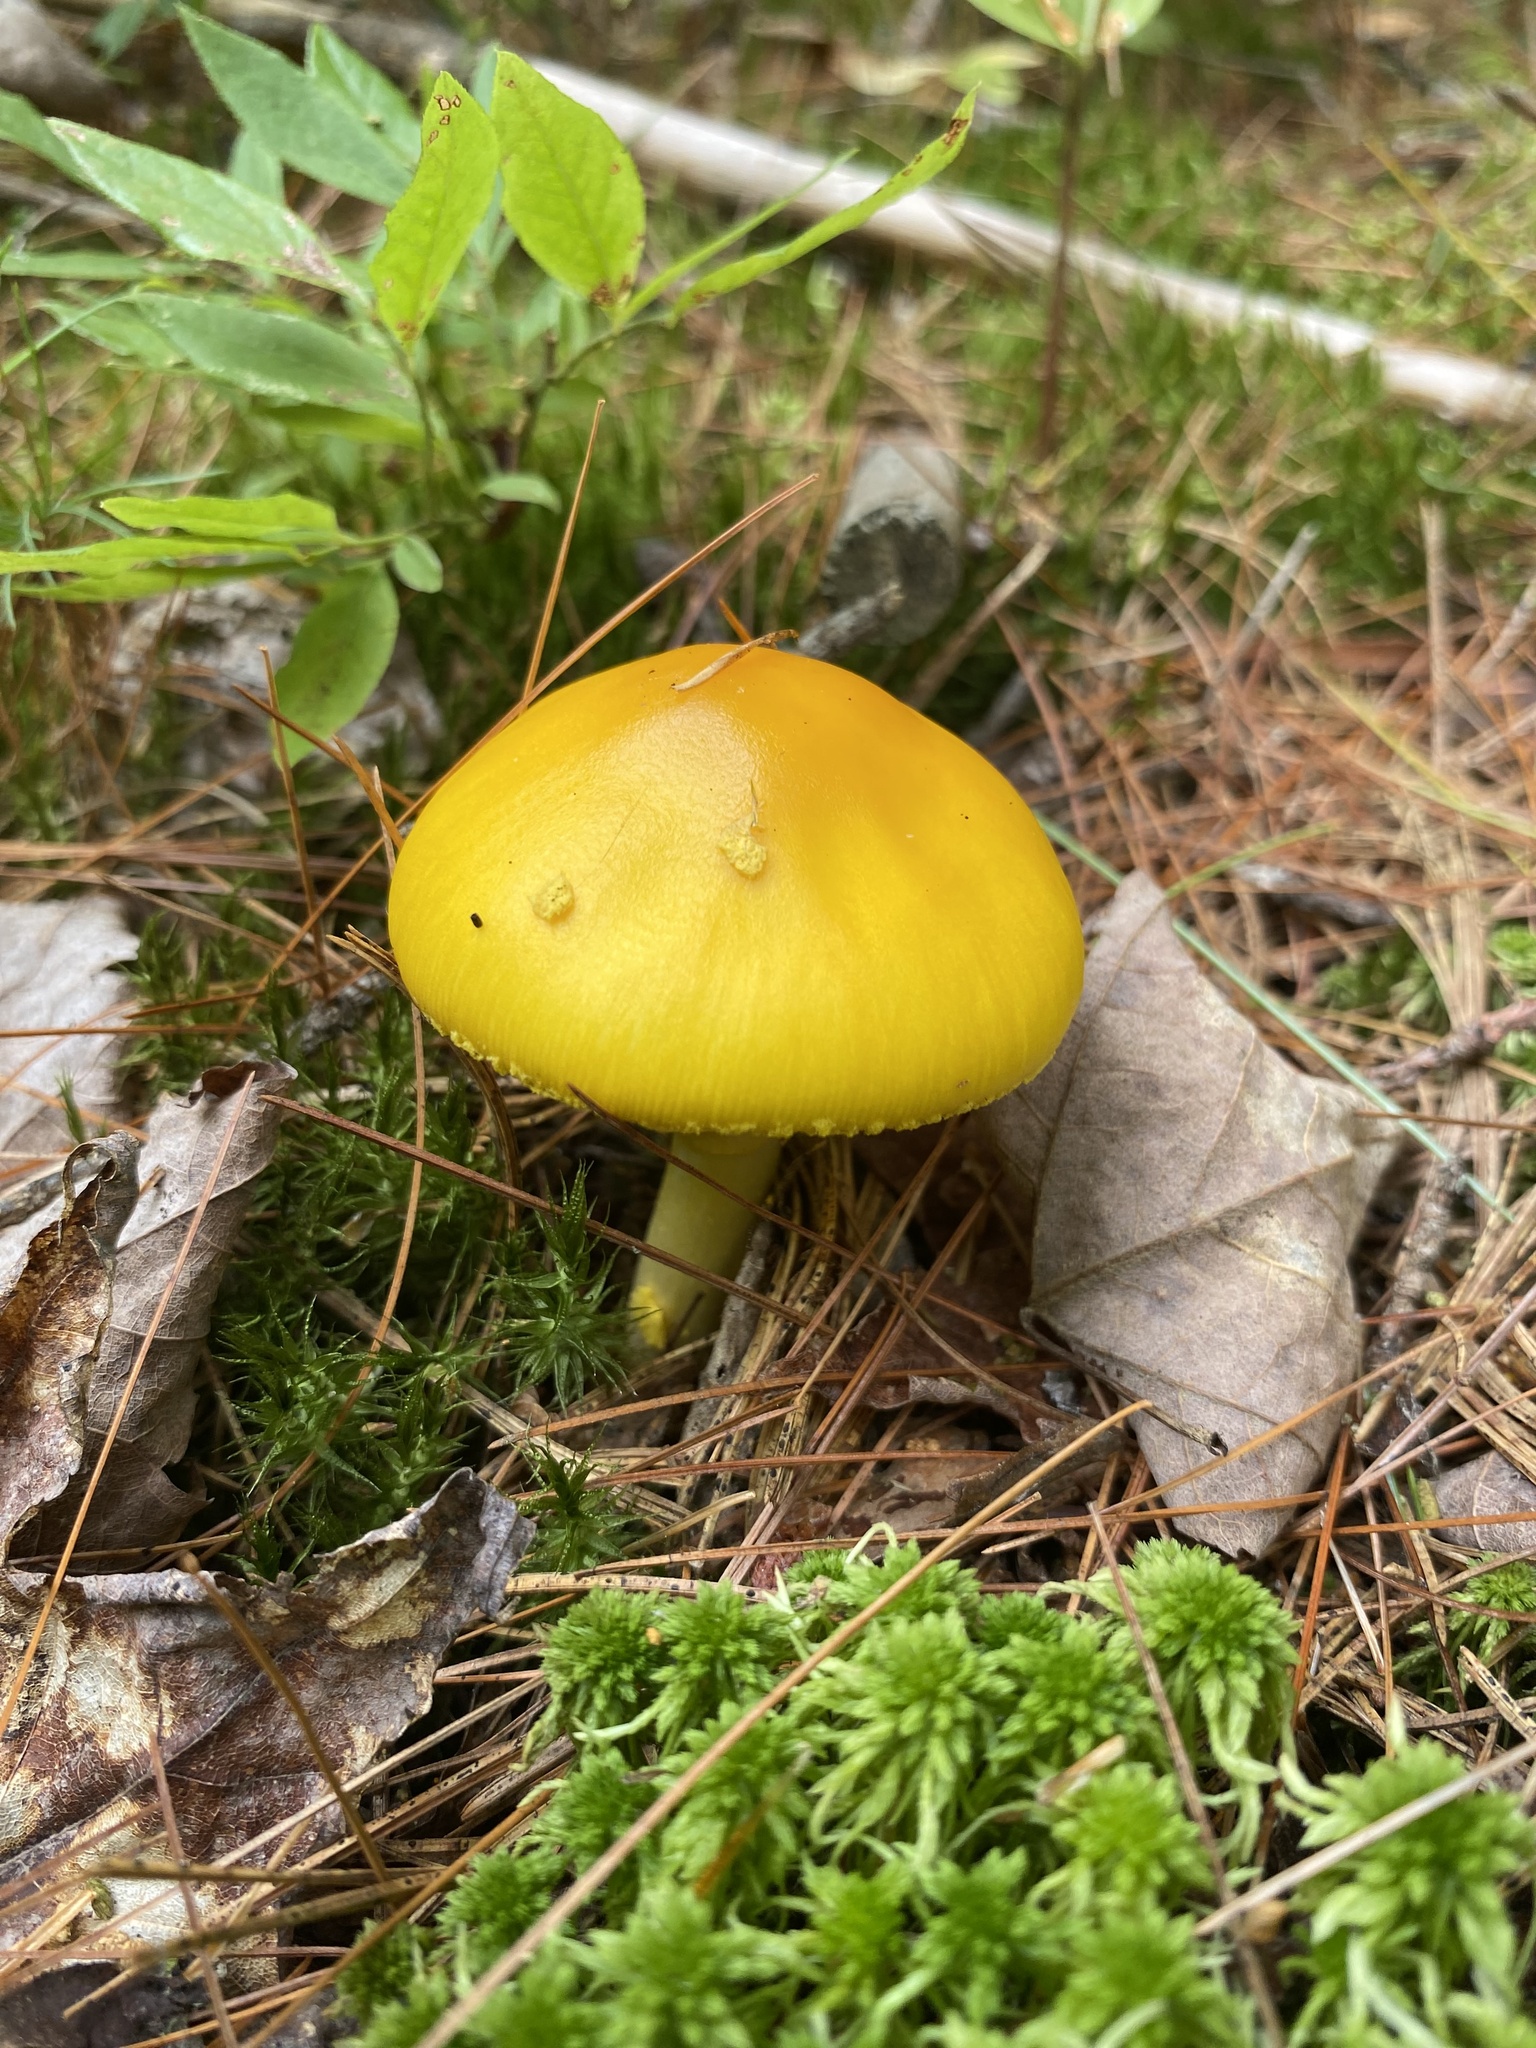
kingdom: Fungi
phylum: Basidiomycota
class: Agaricomycetes
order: Agaricales
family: Amanitaceae
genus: Amanita
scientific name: Amanita flavoconia
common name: Yellow patches
